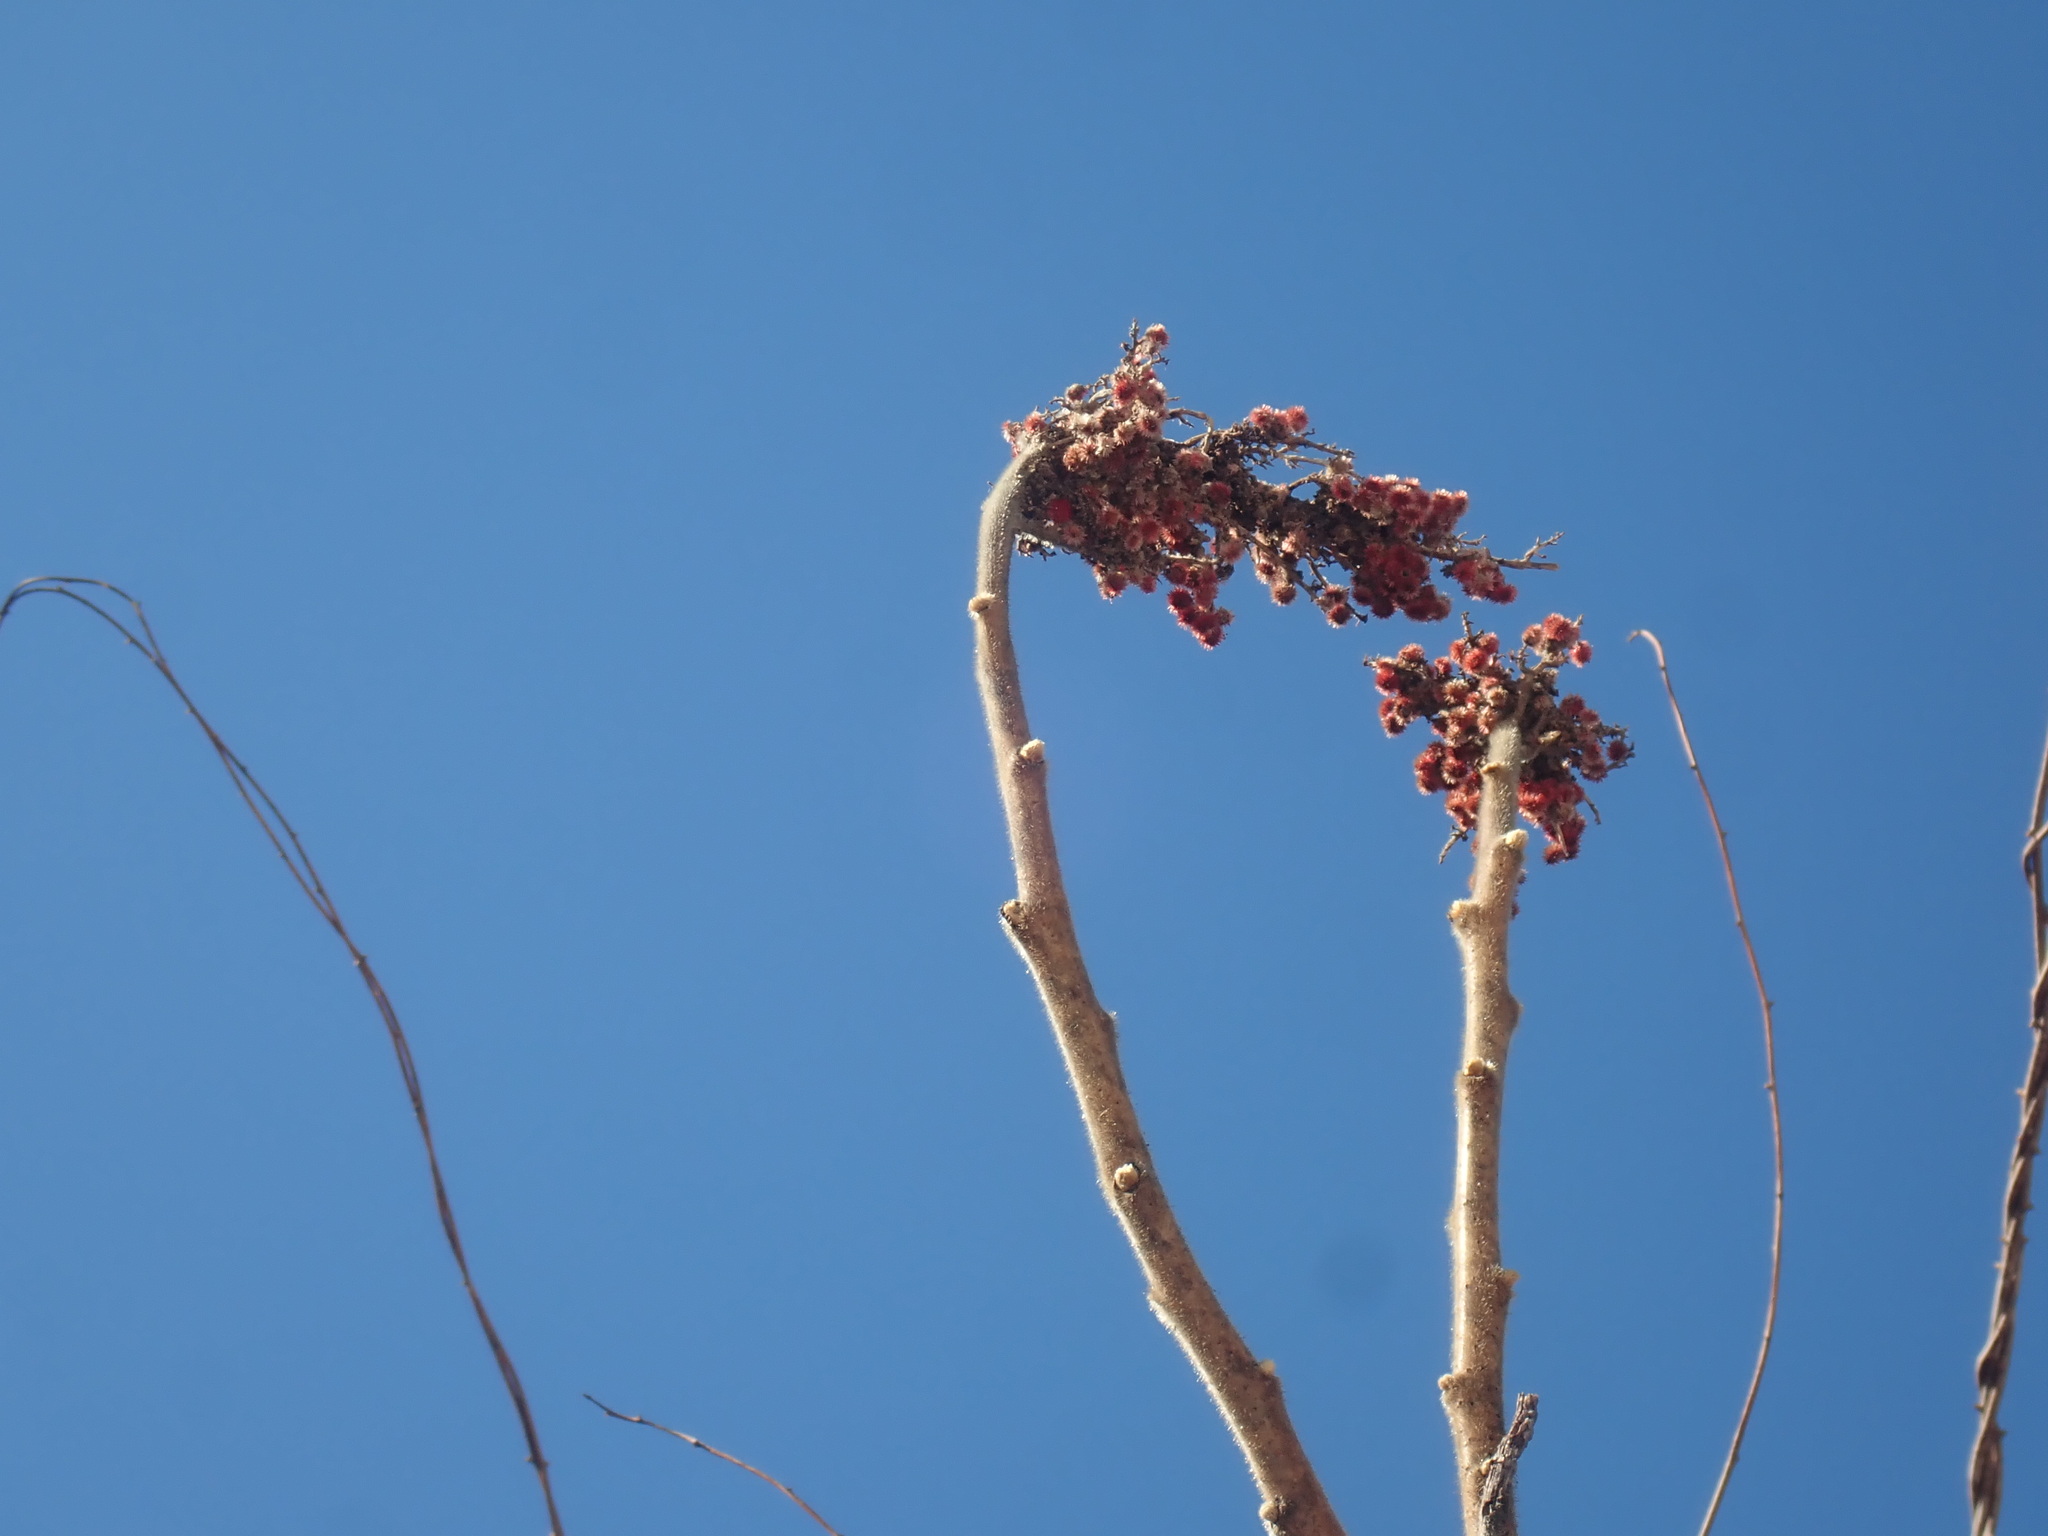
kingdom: Plantae
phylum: Tracheophyta
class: Magnoliopsida
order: Sapindales
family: Anacardiaceae
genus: Rhus
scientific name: Rhus typhina
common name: Staghorn sumac
